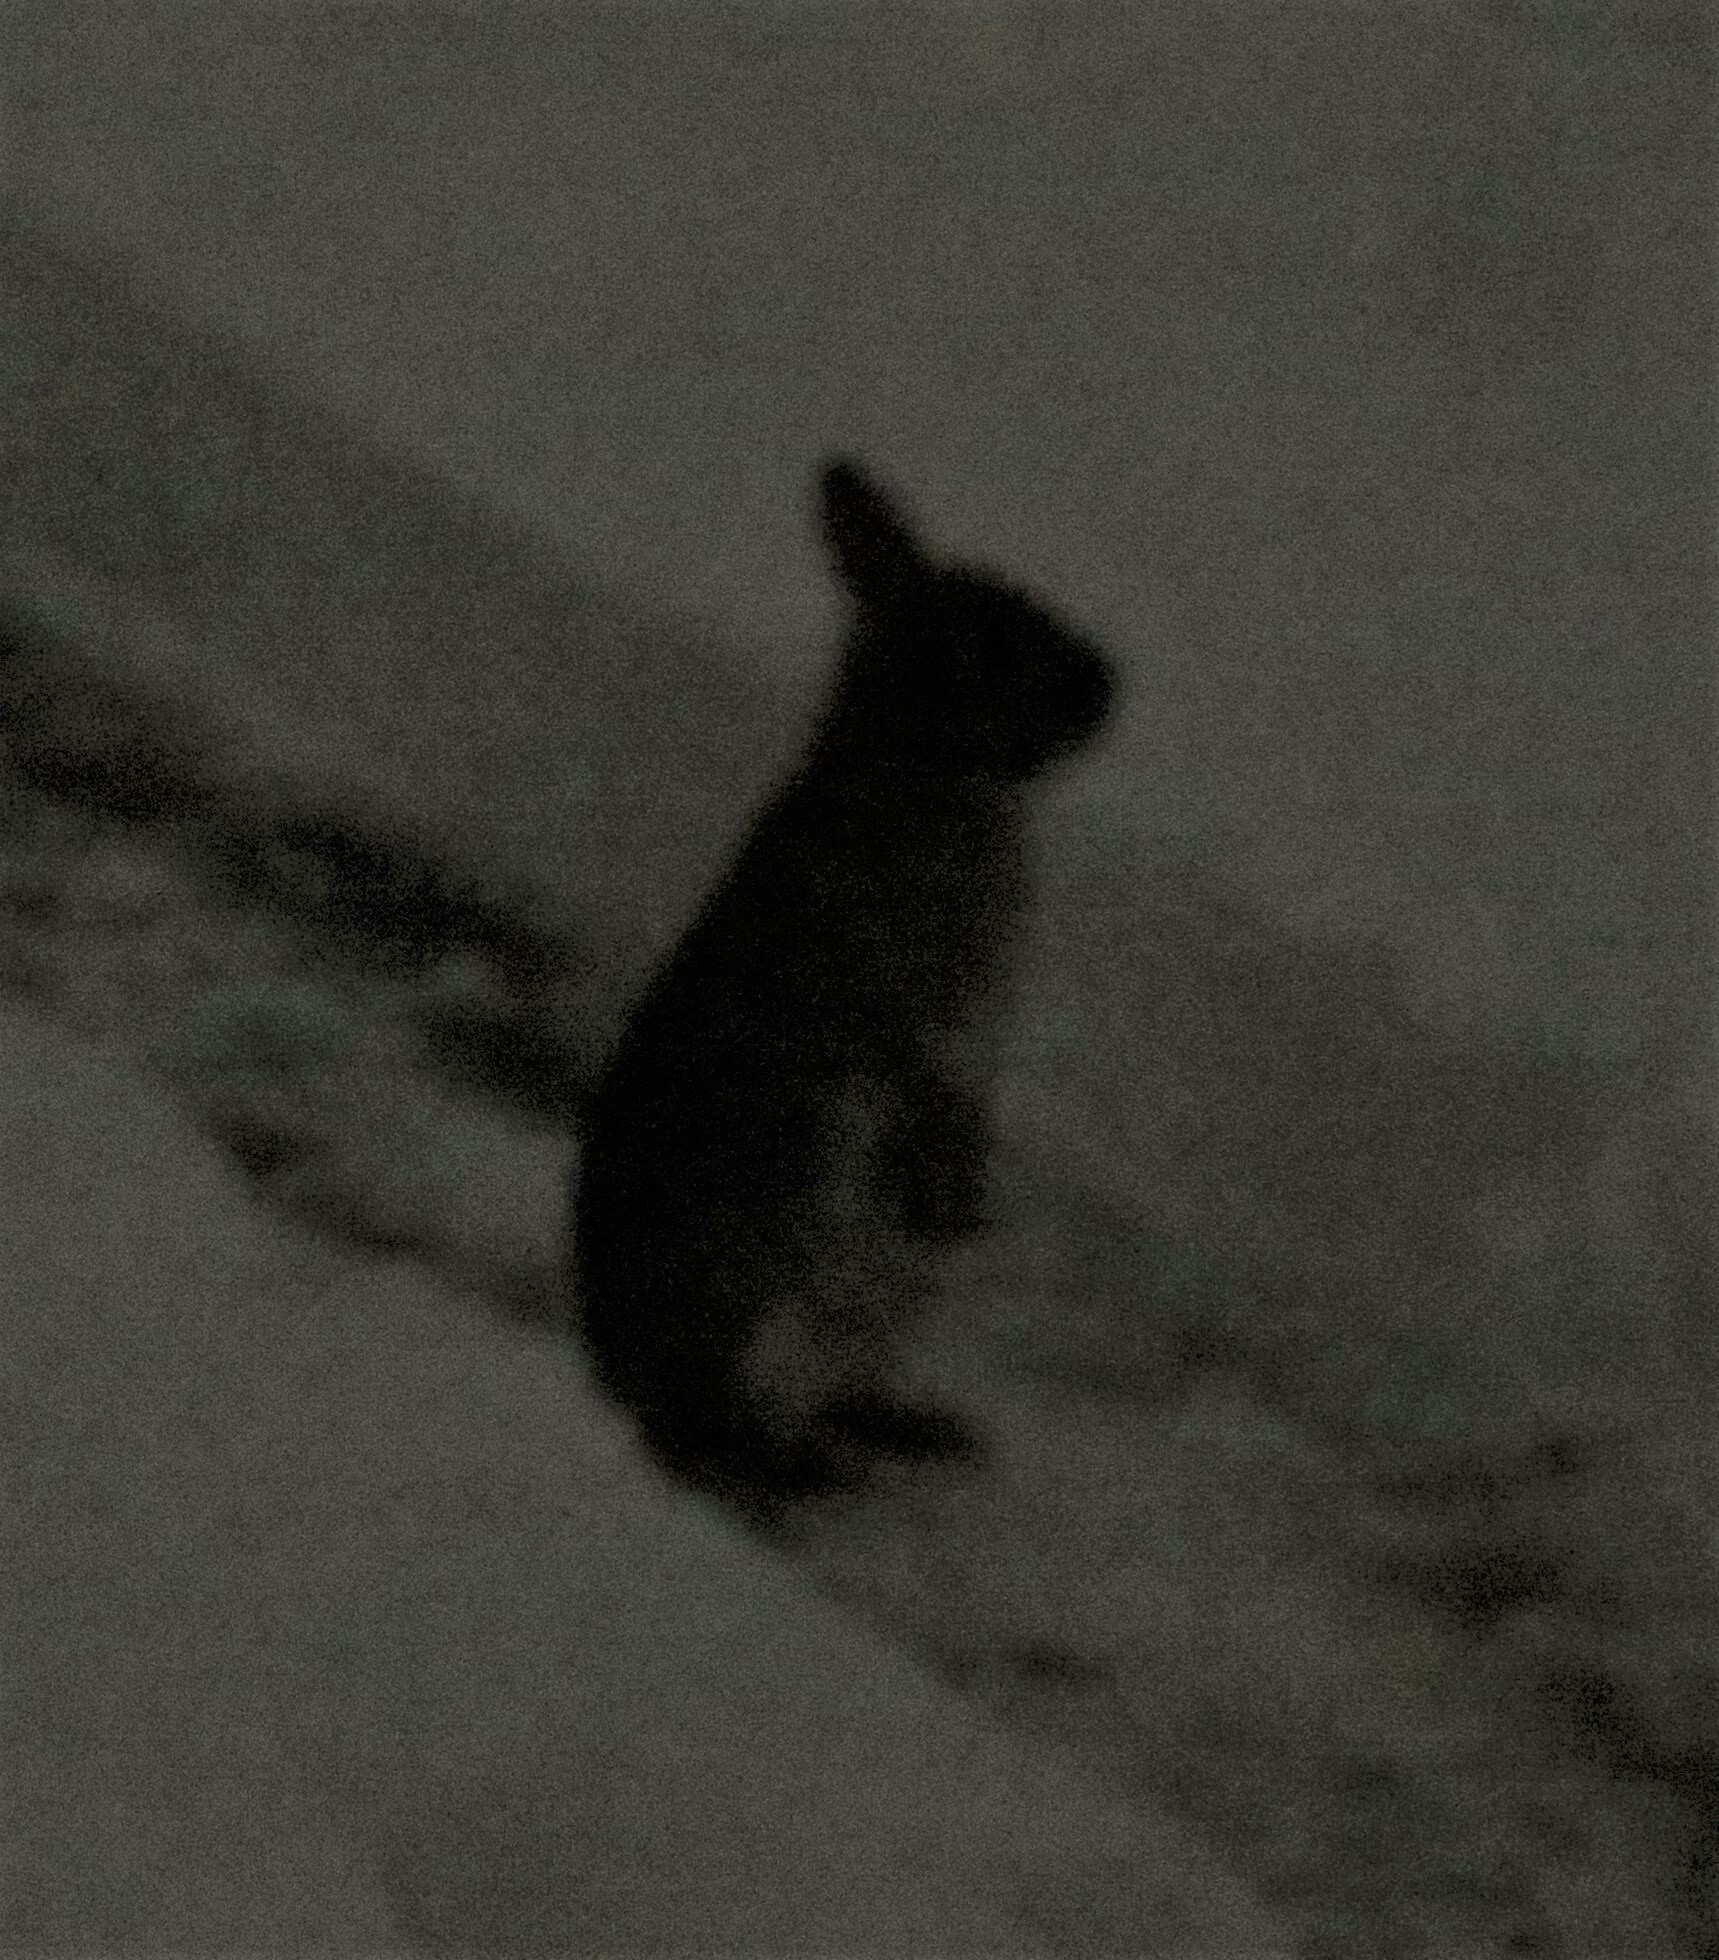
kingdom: Animalia
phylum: Chordata
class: Mammalia
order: Lagomorpha
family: Leporidae
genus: Sylvilagus
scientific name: Sylvilagus floridanus
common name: Eastern cottontail
